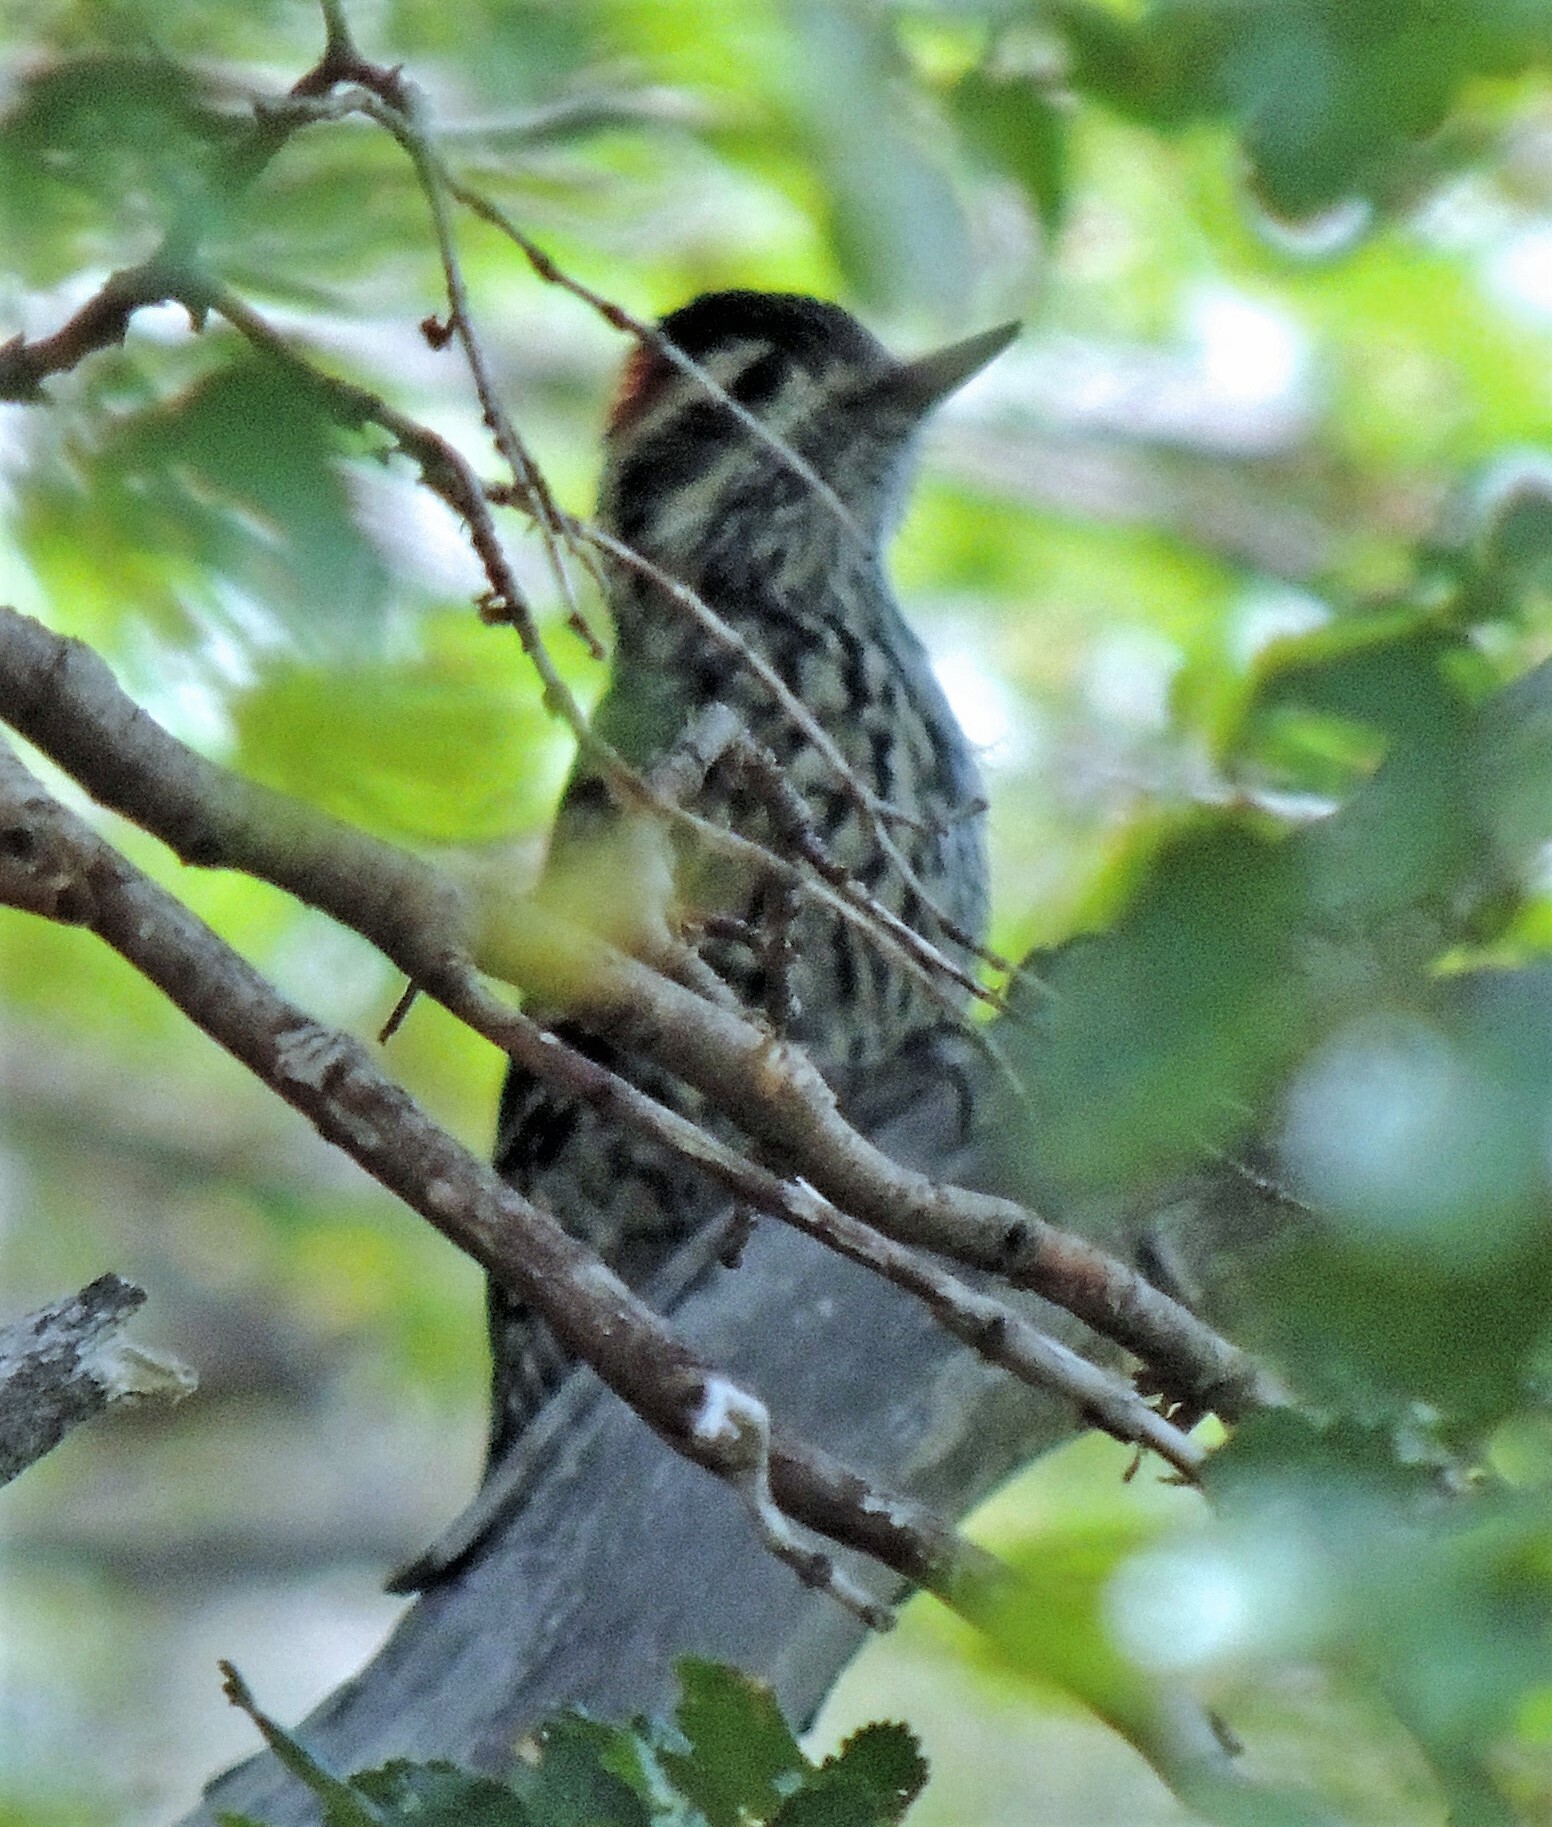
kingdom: Animalia
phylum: Chordata
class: Aves
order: Piciformes
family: Picidae
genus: Veniliornis
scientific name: Veniliornis lignarius
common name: Striped woodpecker
